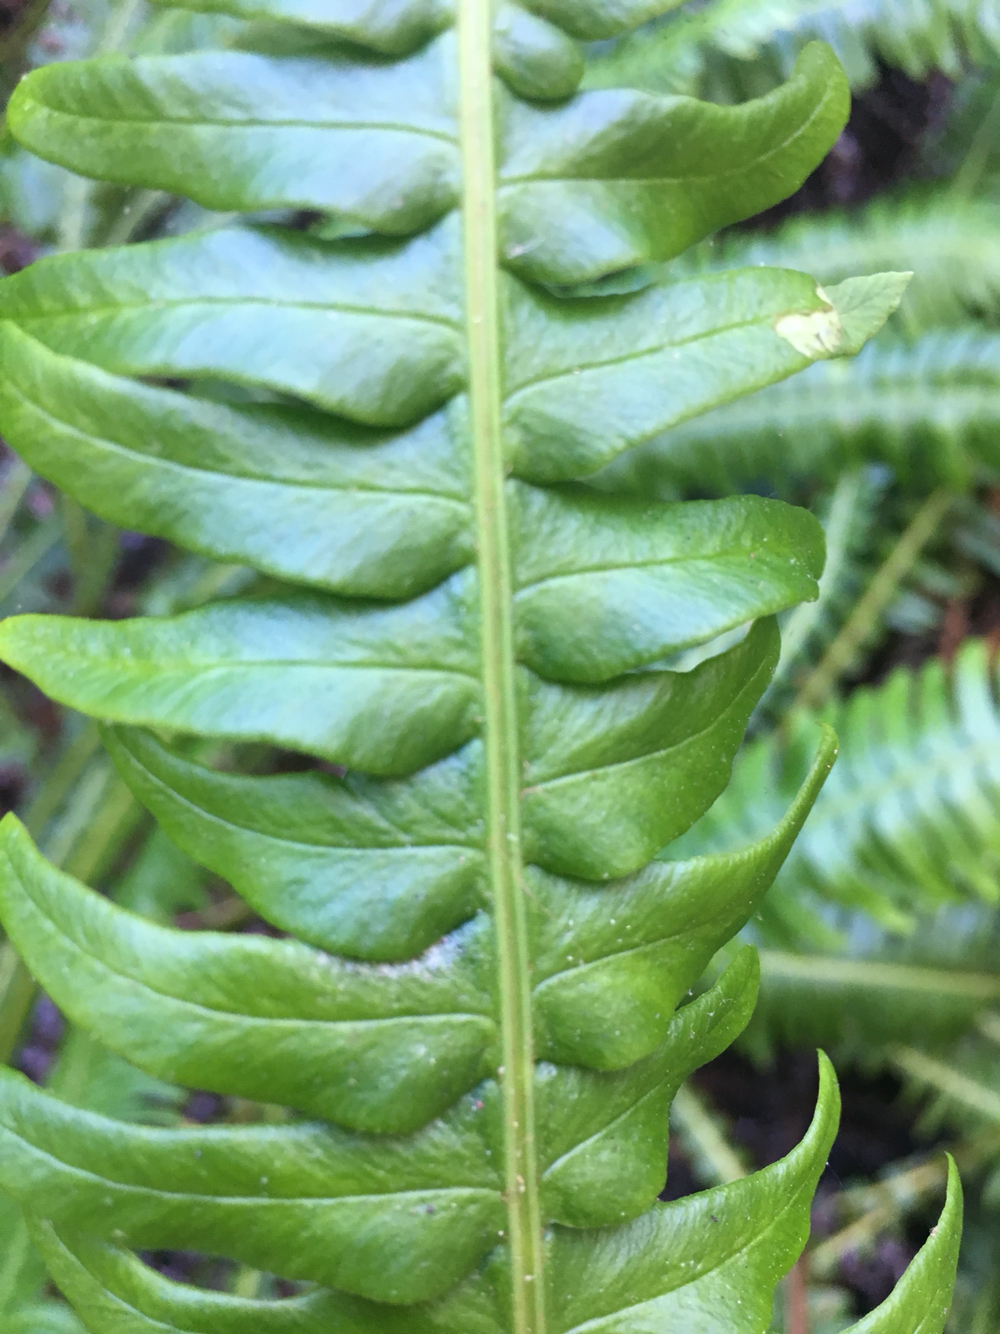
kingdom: Plantae
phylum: Tracheophyta
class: Polypodiopsida
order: Polypodiales
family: Blechnaceae
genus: Struthiopteris
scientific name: Struthiopteris spicant
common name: Deer fern
